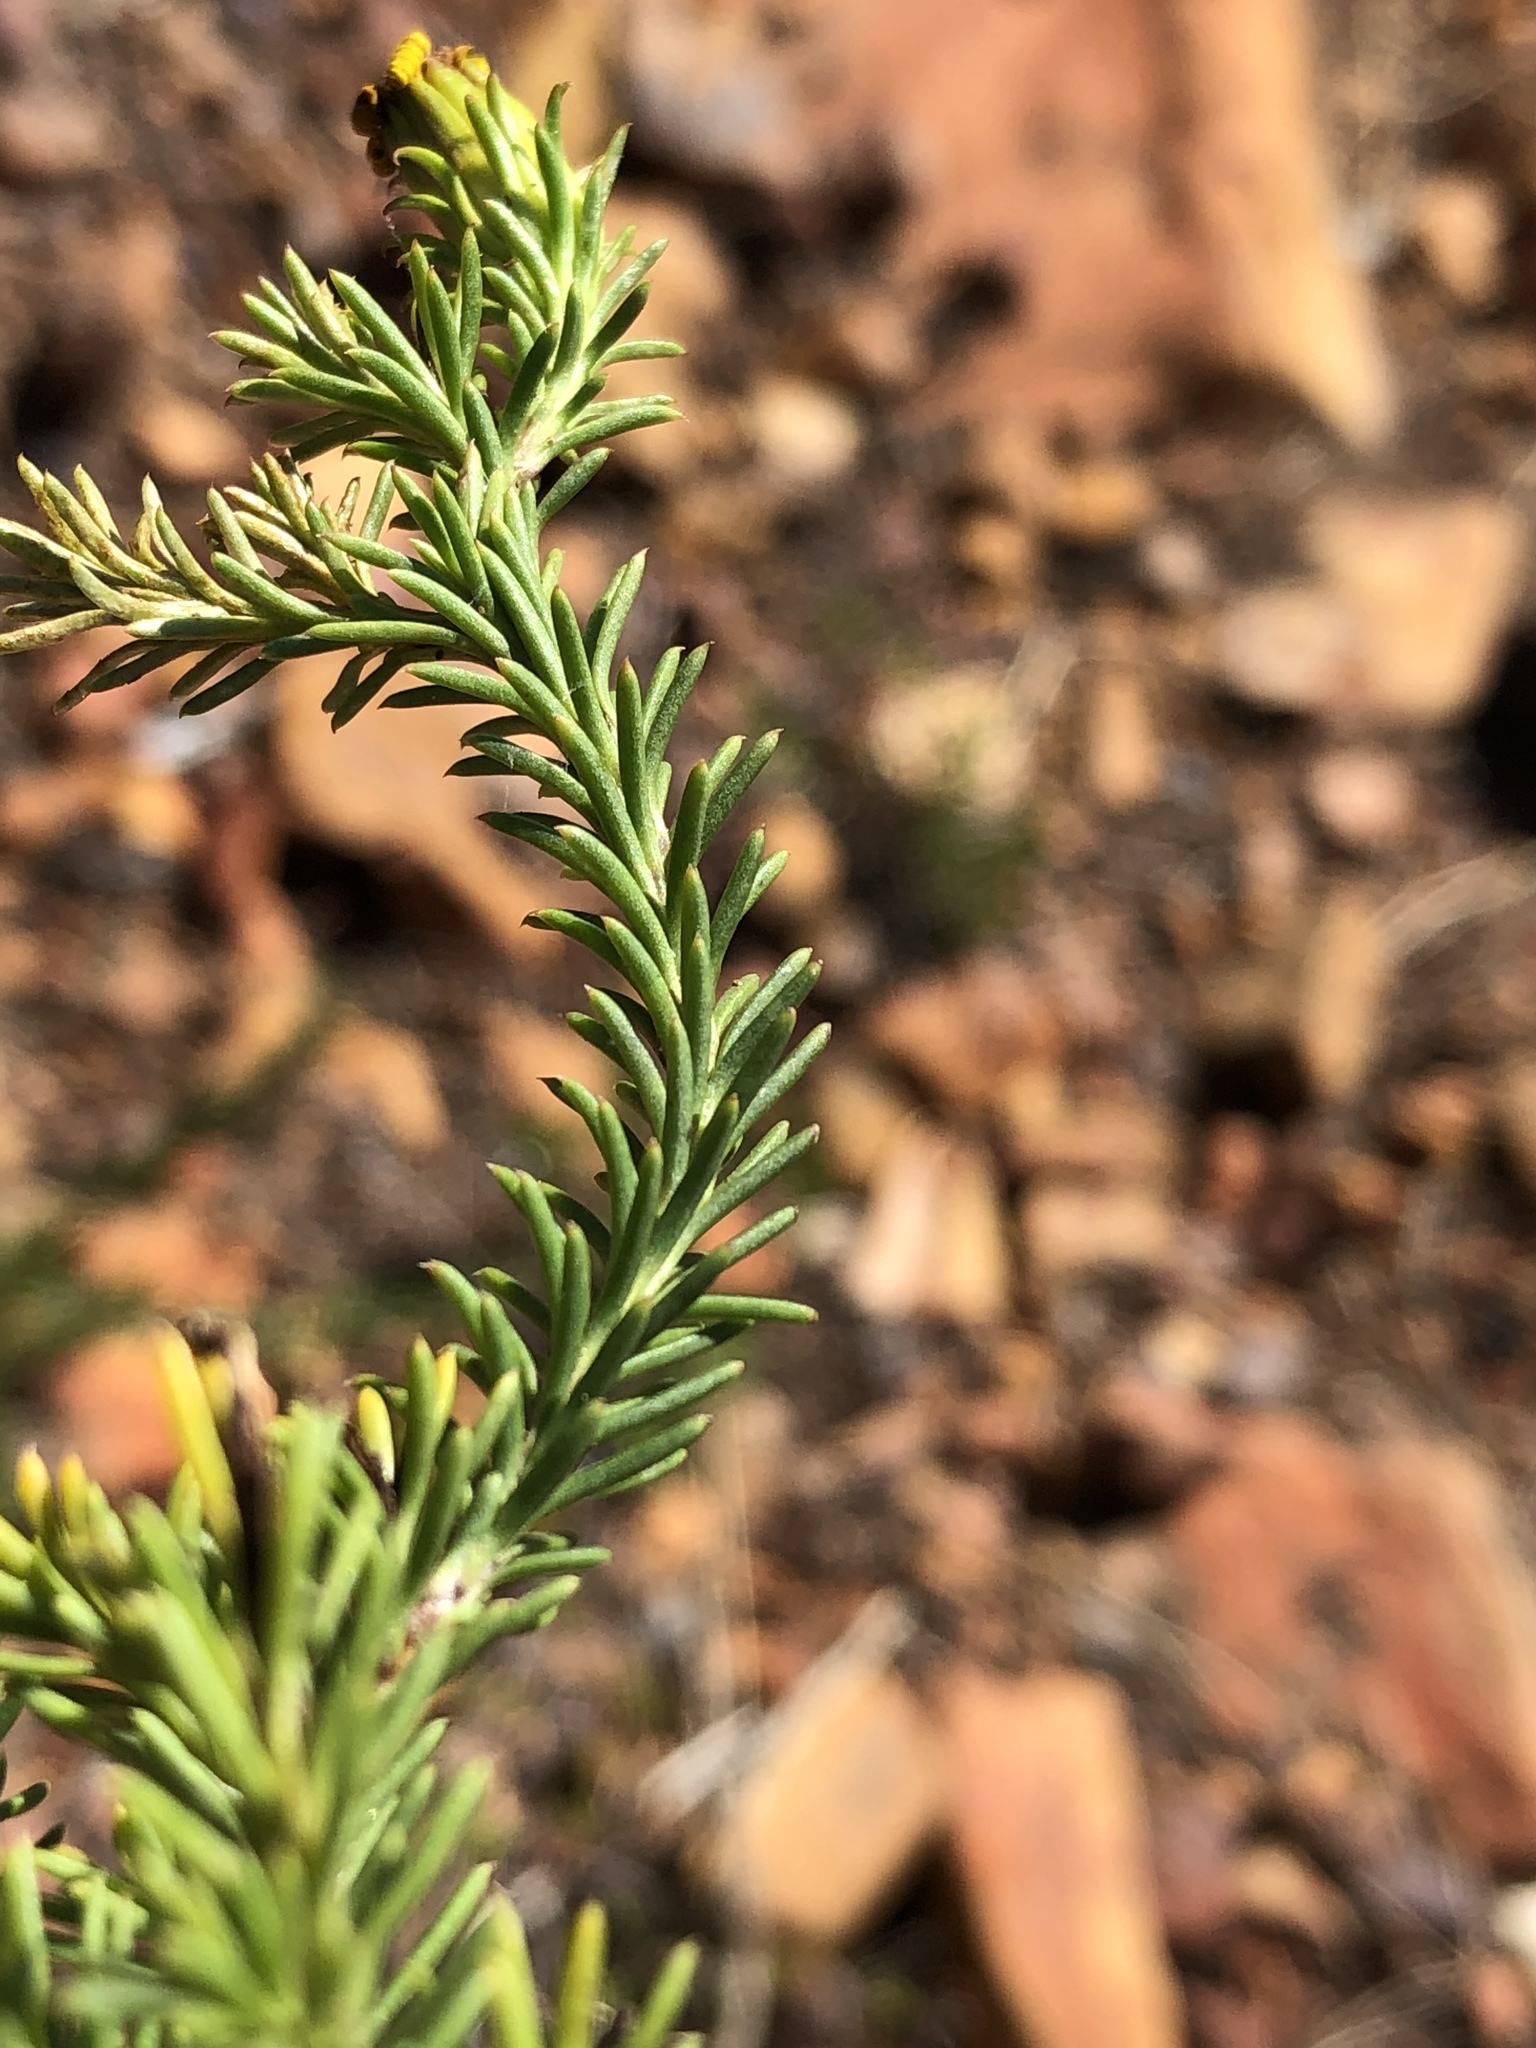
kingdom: Plantae
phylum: Tracheophyta
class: Magnoliopsida
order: Asterales
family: Asteraceae
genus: Senecio
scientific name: Senecio pinifolius
